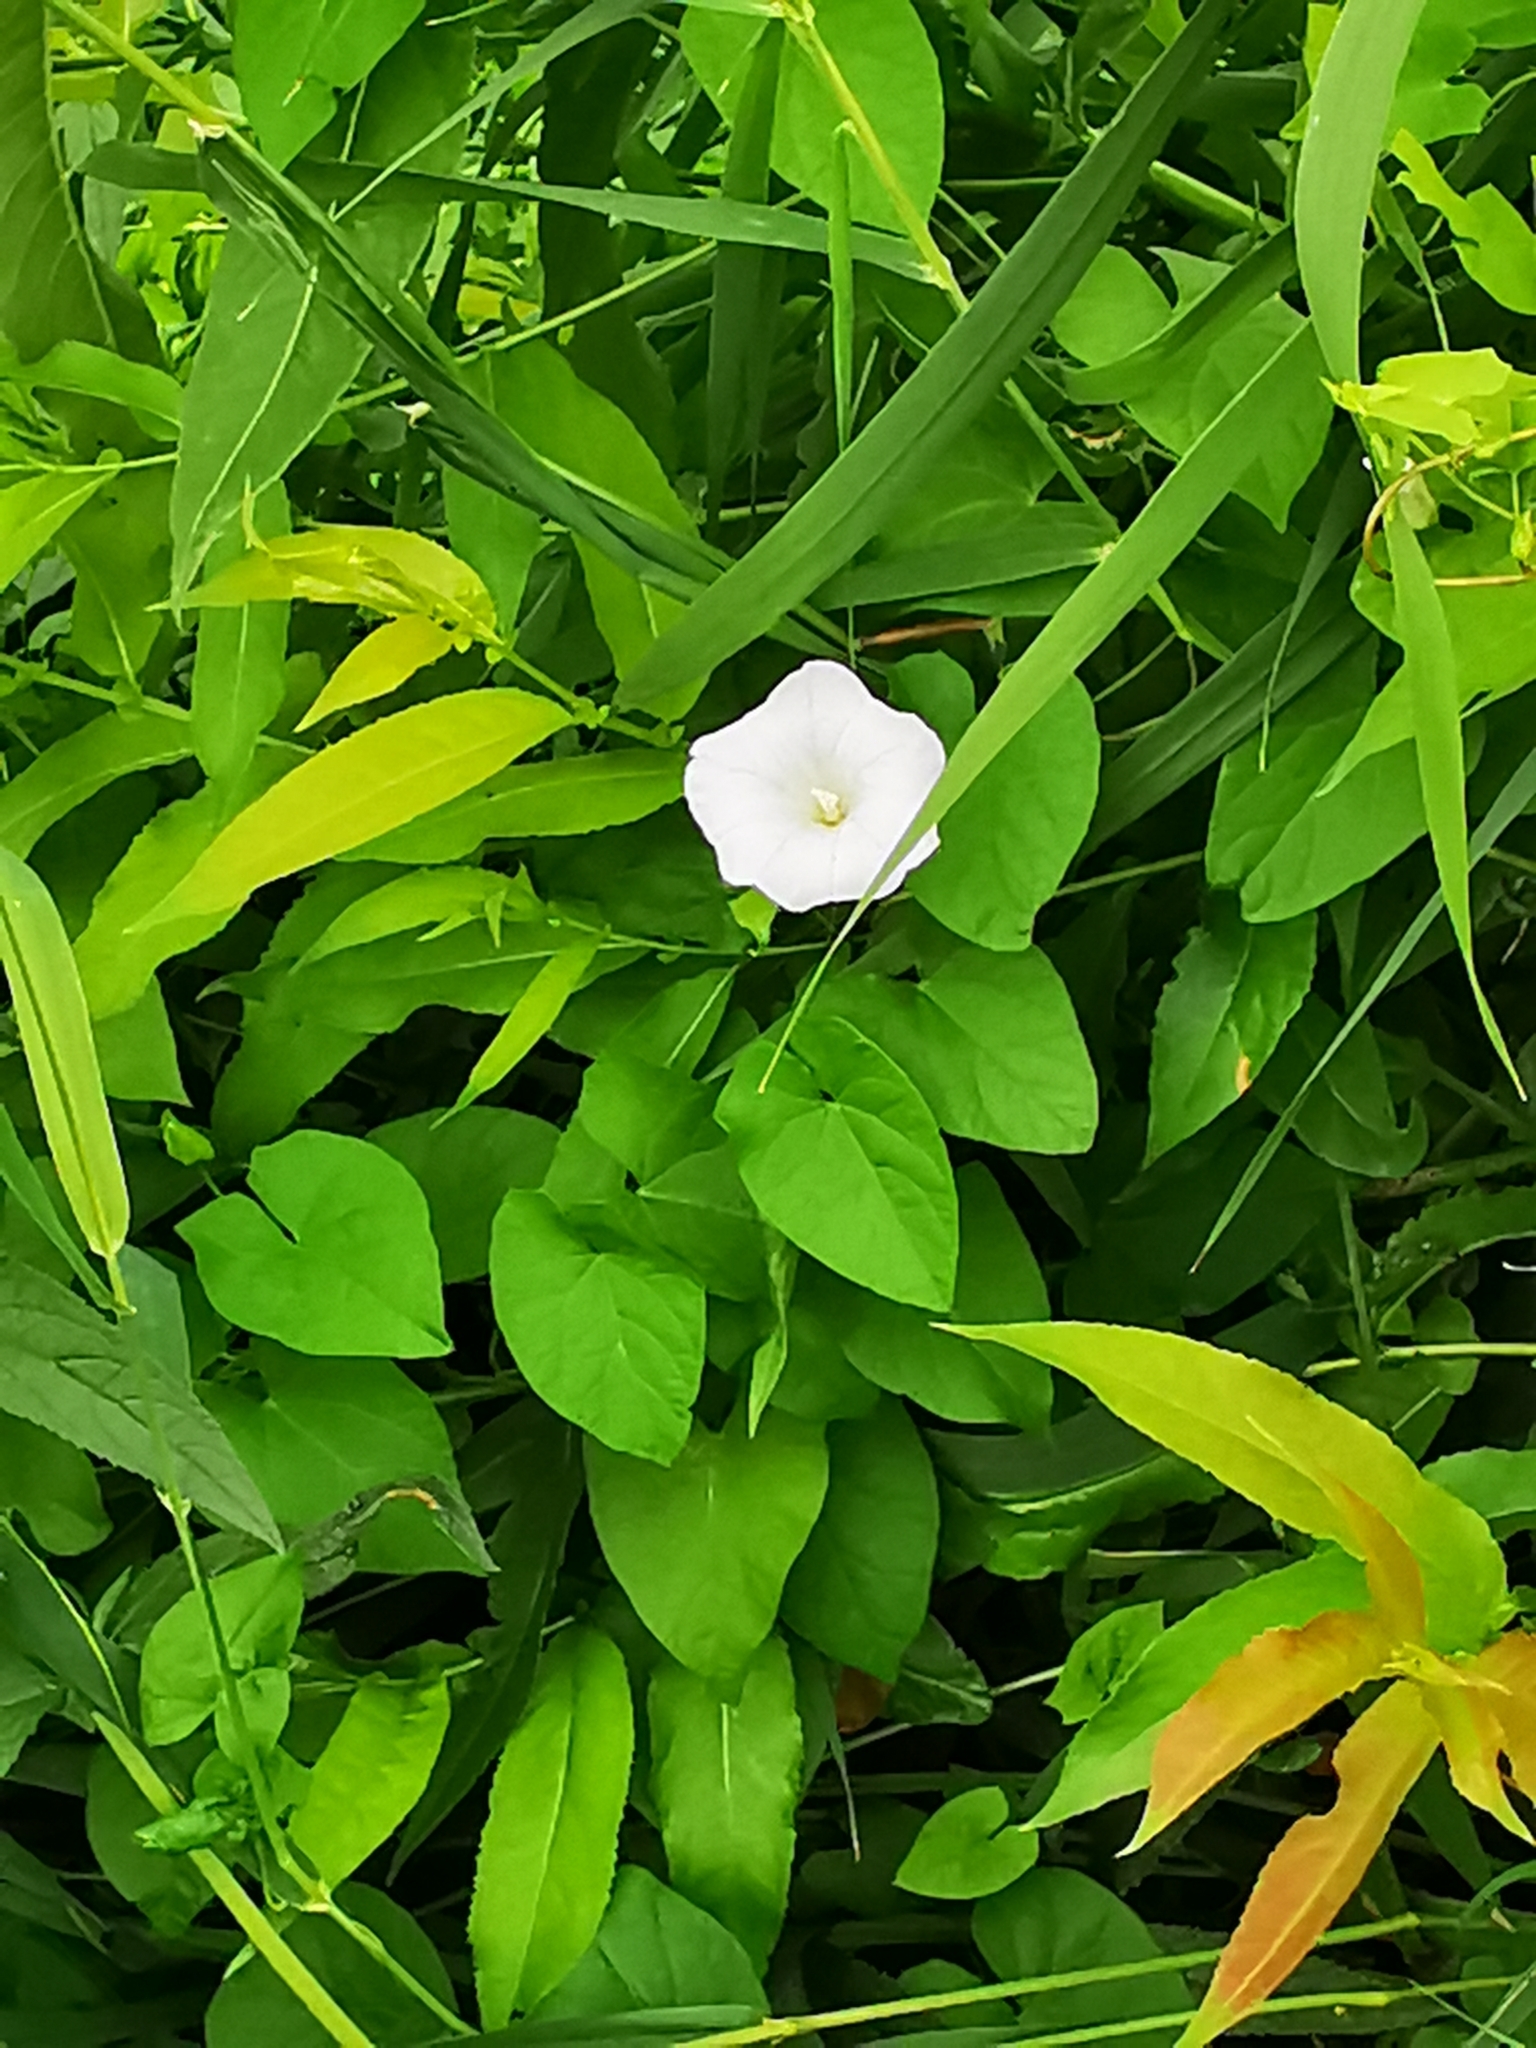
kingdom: Plantae
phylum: Tracheophyta
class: Magnoliopsida
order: Solanales
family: Convolvulaceae
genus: Calystegia
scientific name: Calystegia sepium
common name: Hedge bindweed
